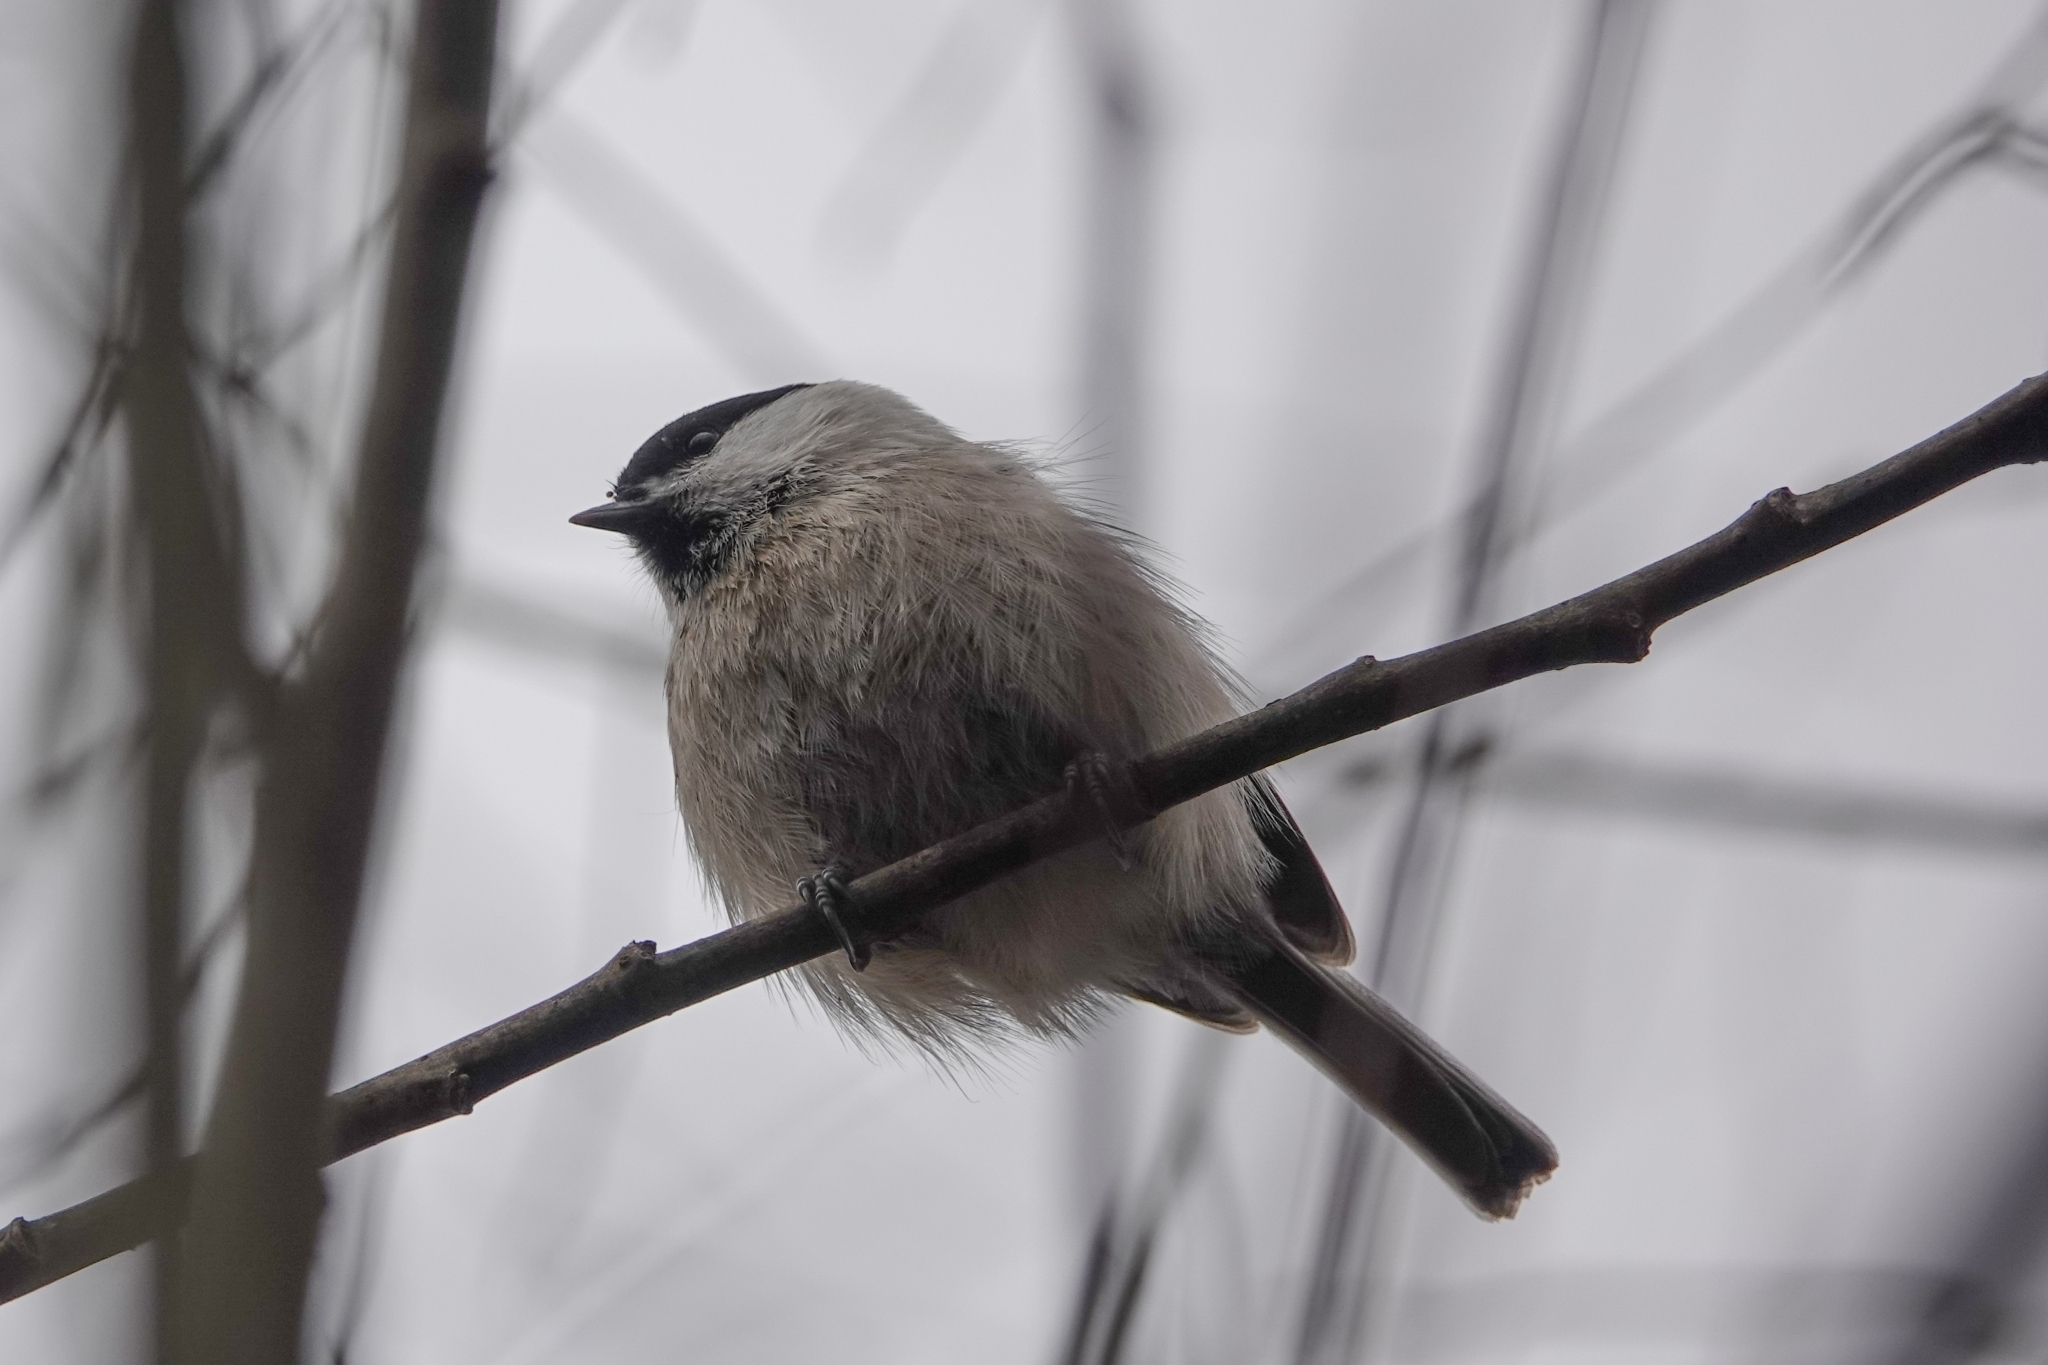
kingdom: Animalia
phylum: Chordata
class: Aves
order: Passeriformes
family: Paridae
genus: Poecile
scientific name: Poecile montanus
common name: Willow tit
